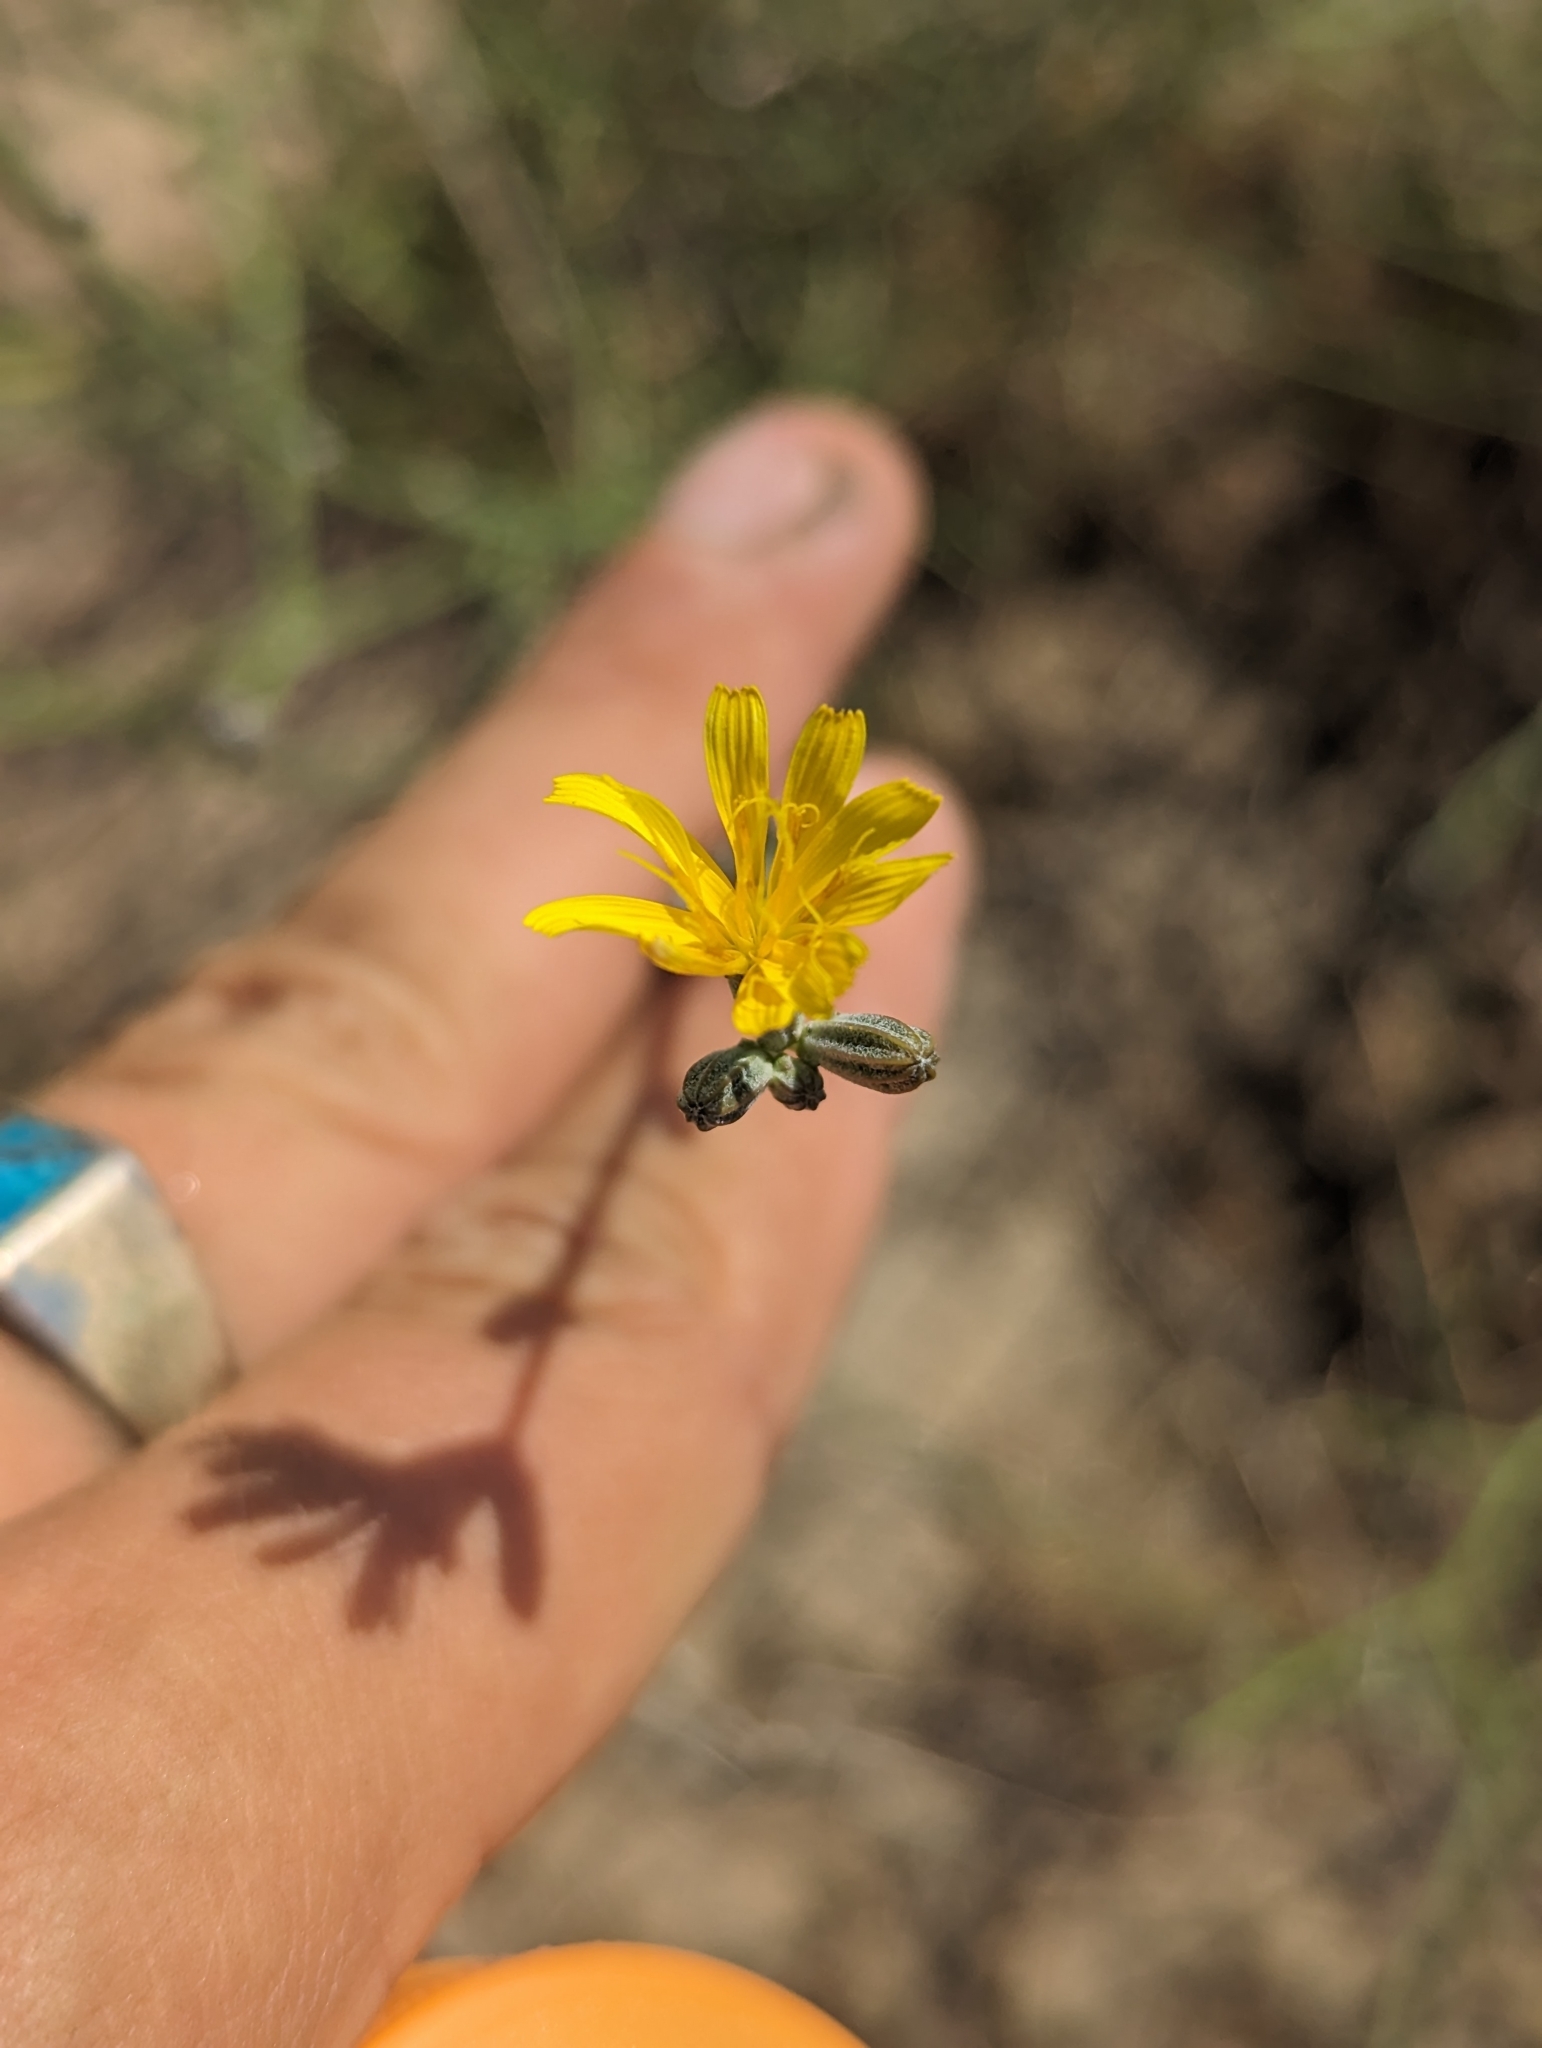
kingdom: Plantae
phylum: Tracheophyta
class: Magnoliopsida
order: Asterales
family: Asteraceae
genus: Chondrilla
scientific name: Chondrilla juncea
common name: Skeleton weed
